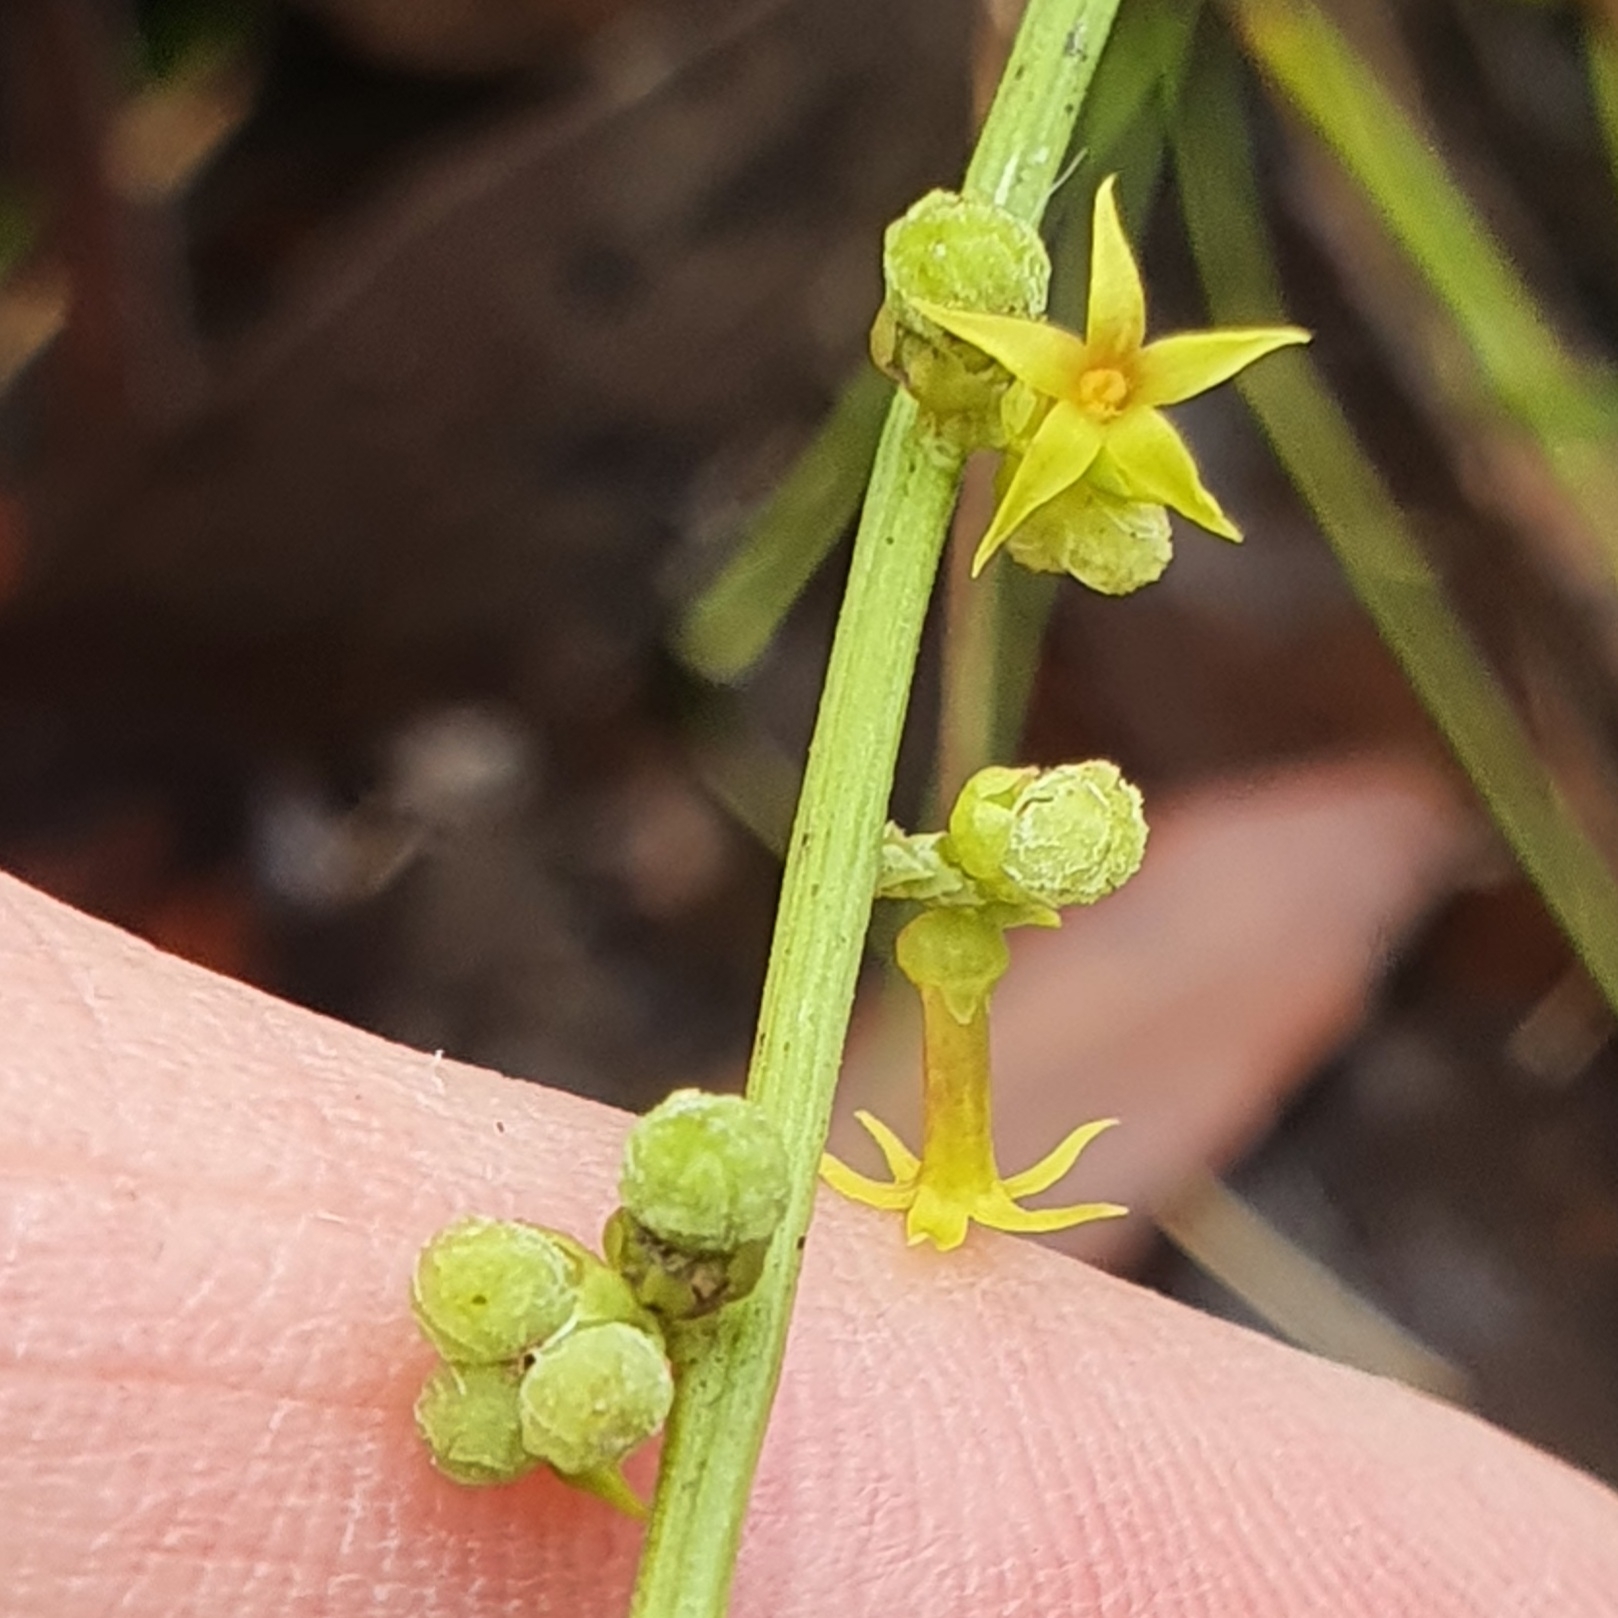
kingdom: Plantae
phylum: Tracheophyta
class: Magnoliopsida
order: Celastrales
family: Celastraceae
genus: Stackhousia
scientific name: Stackhousia viminea
